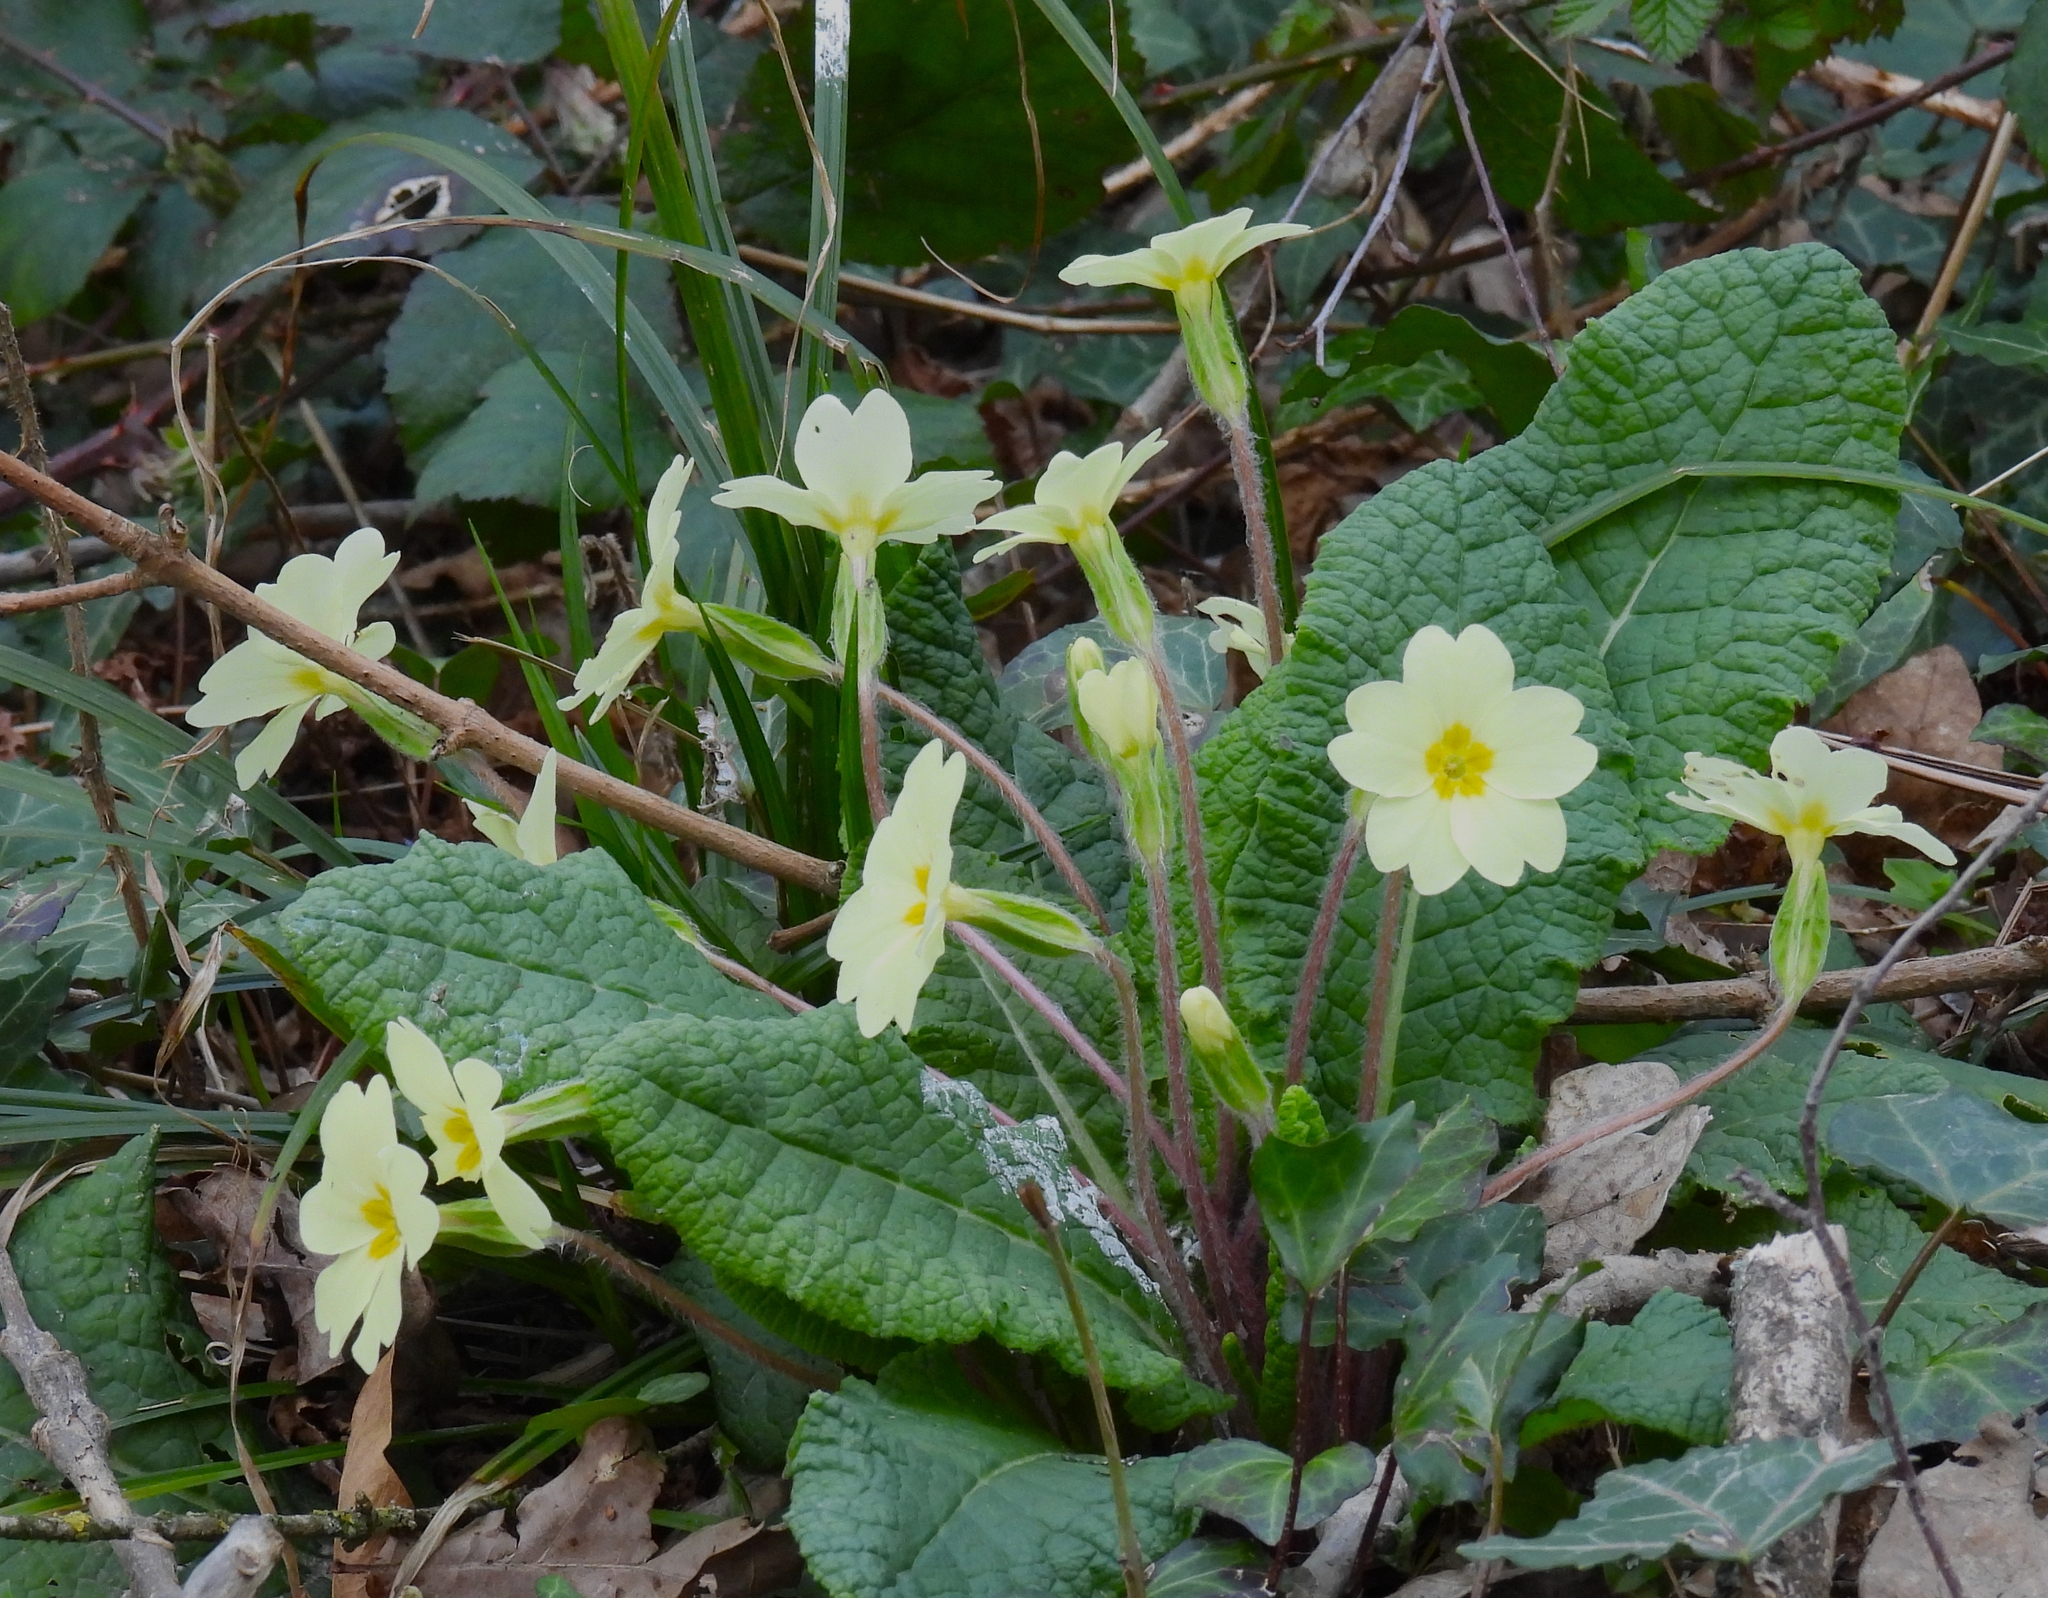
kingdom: Plantae
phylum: Tracheophyta
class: Magnoliopsida
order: Ericales
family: Primulaceae
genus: Primula
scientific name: Primula vulgaris
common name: Primrose
